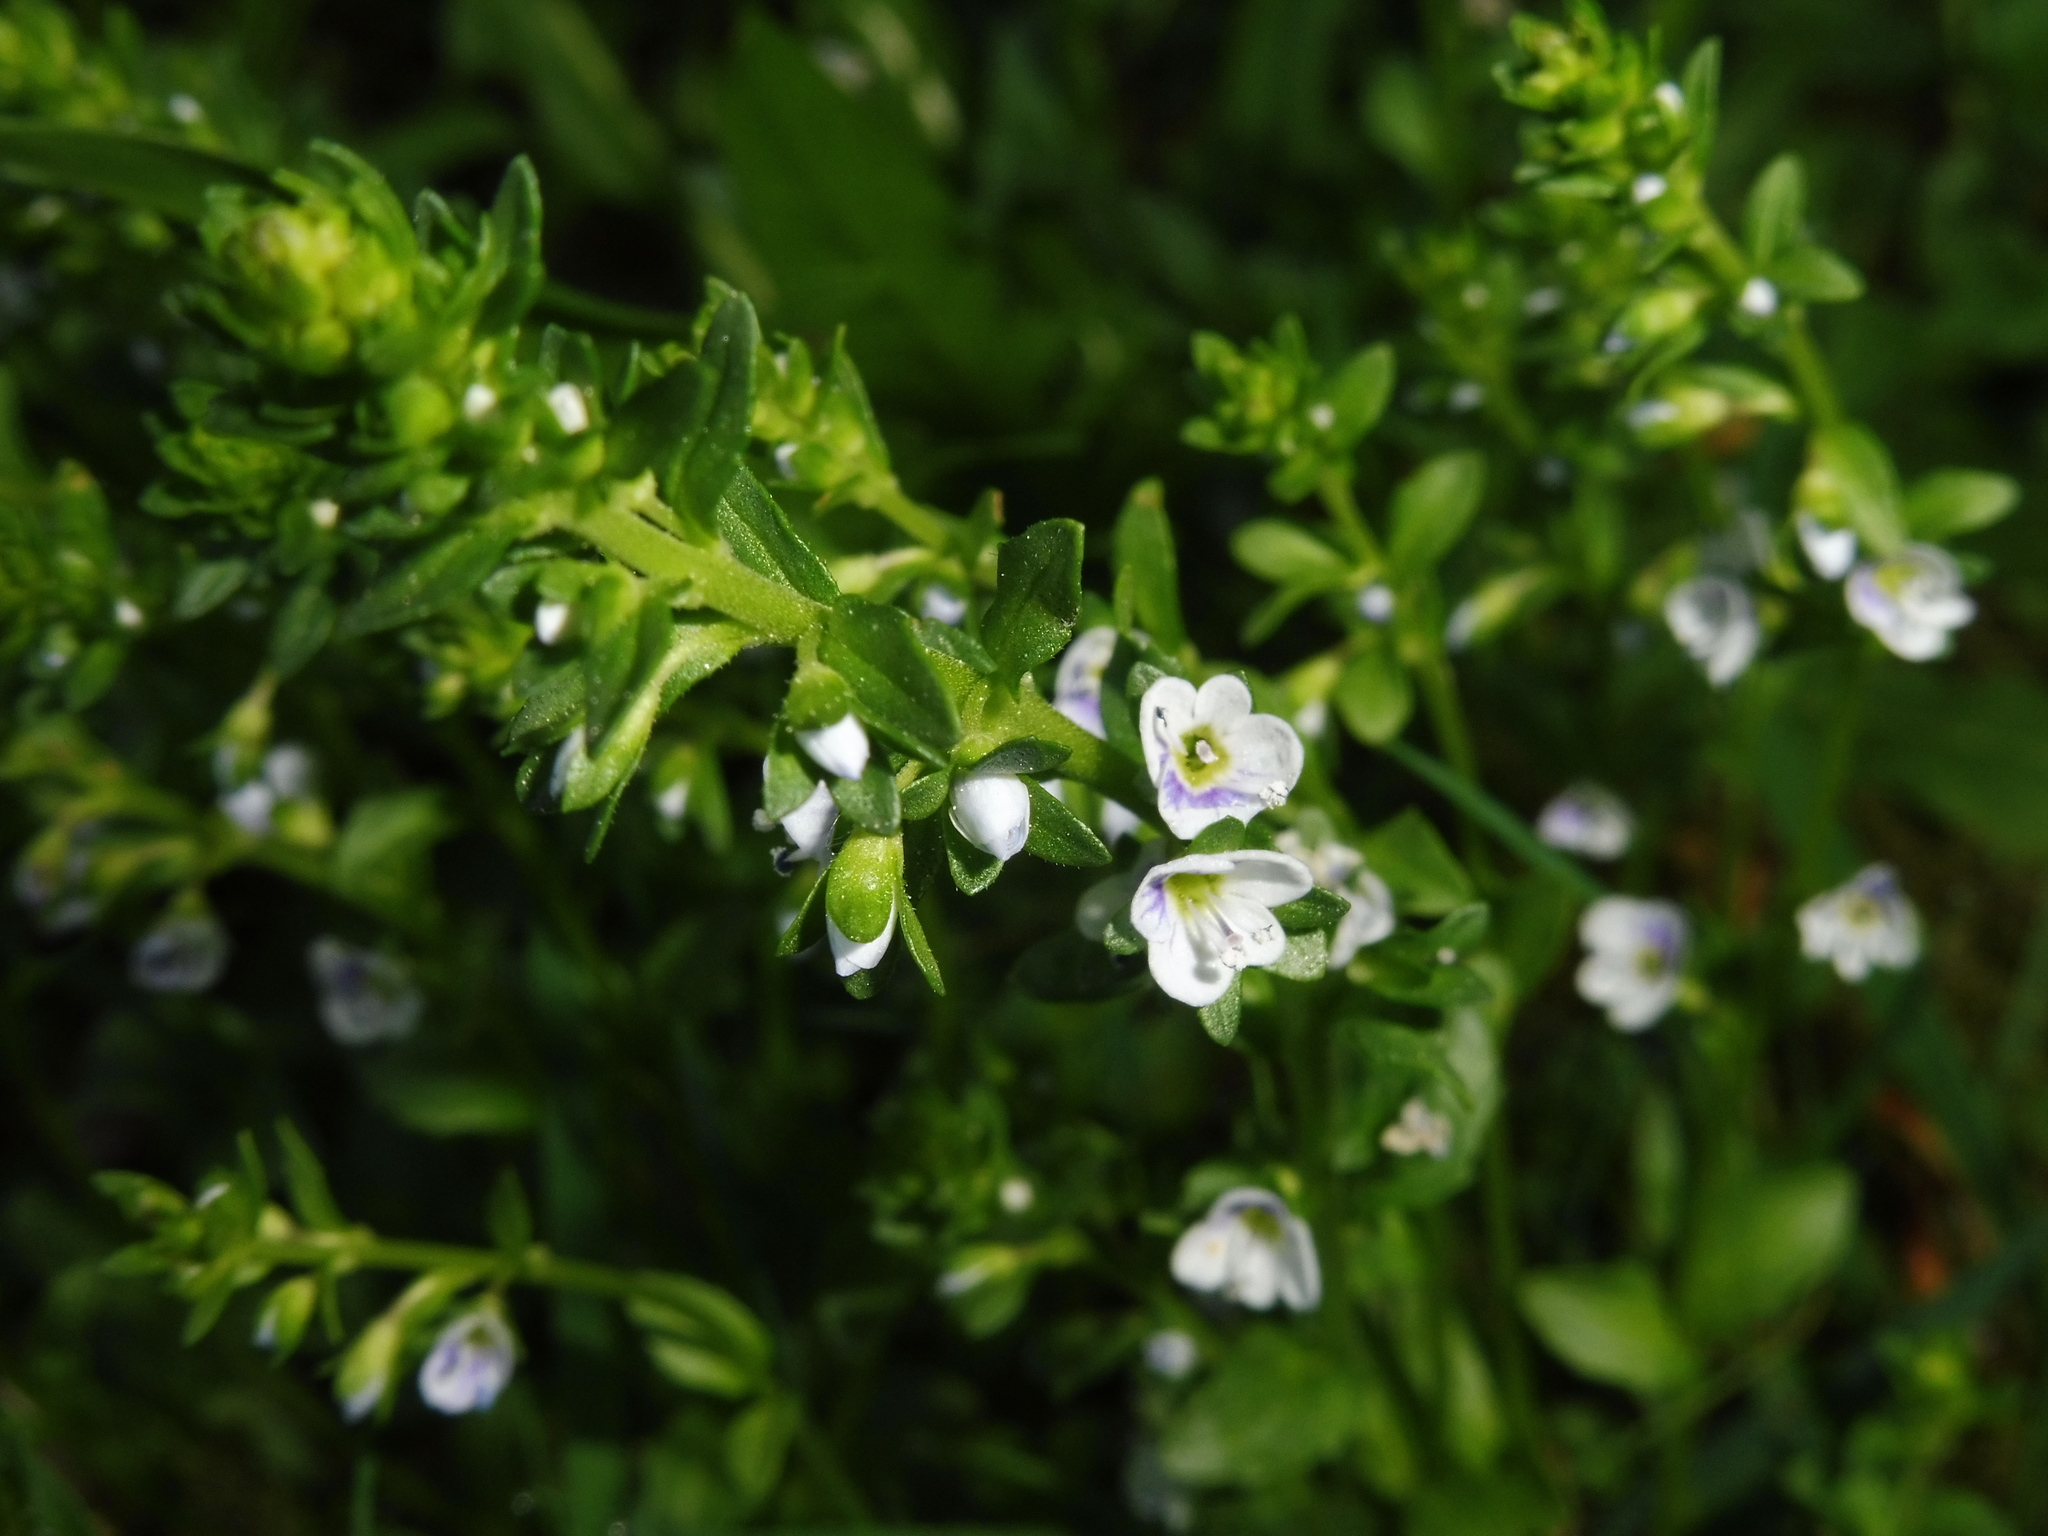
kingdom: Plantae
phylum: Tracheophyta
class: Magnoliopsida
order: Lamiales
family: Plantaginaceae
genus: Veronica
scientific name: Veronica serpyllifolia
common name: Thyme-leaved speedwell
